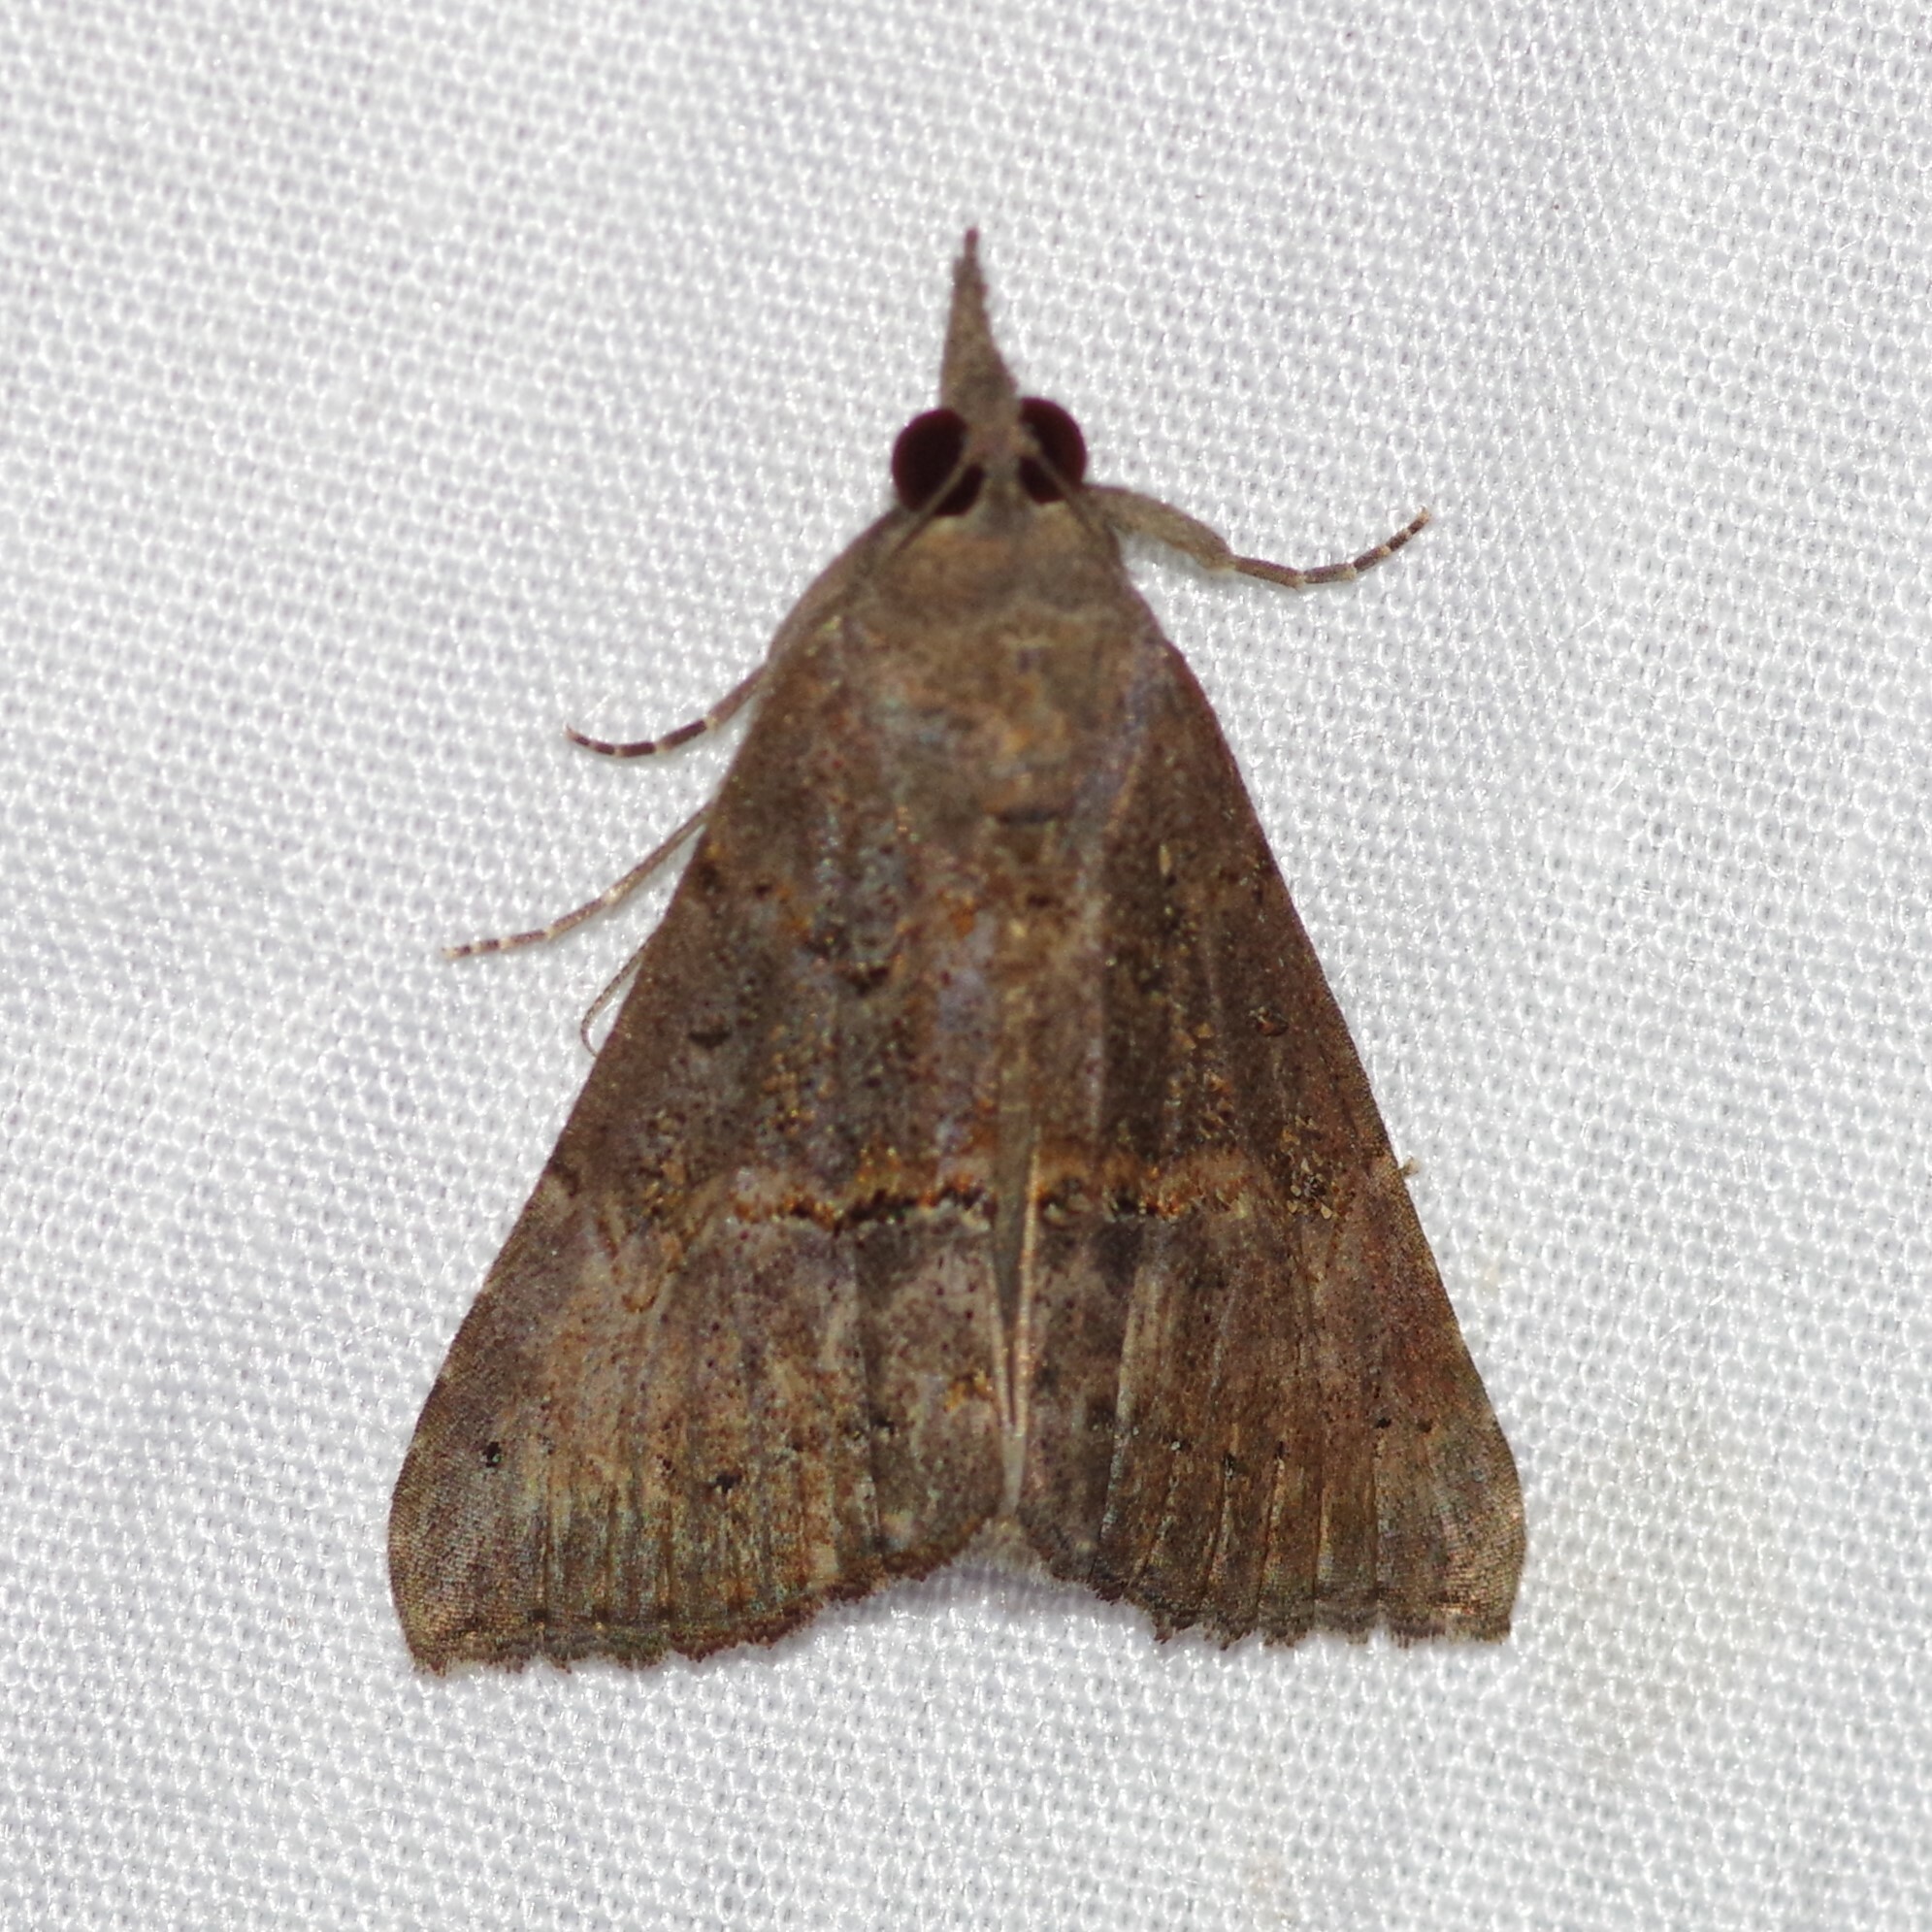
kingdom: Animalia
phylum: Arthropoda
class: Insecta
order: Lepidoptera
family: Erebidae
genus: Hypena
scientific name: Hypena scabra
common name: Green cloverworm
